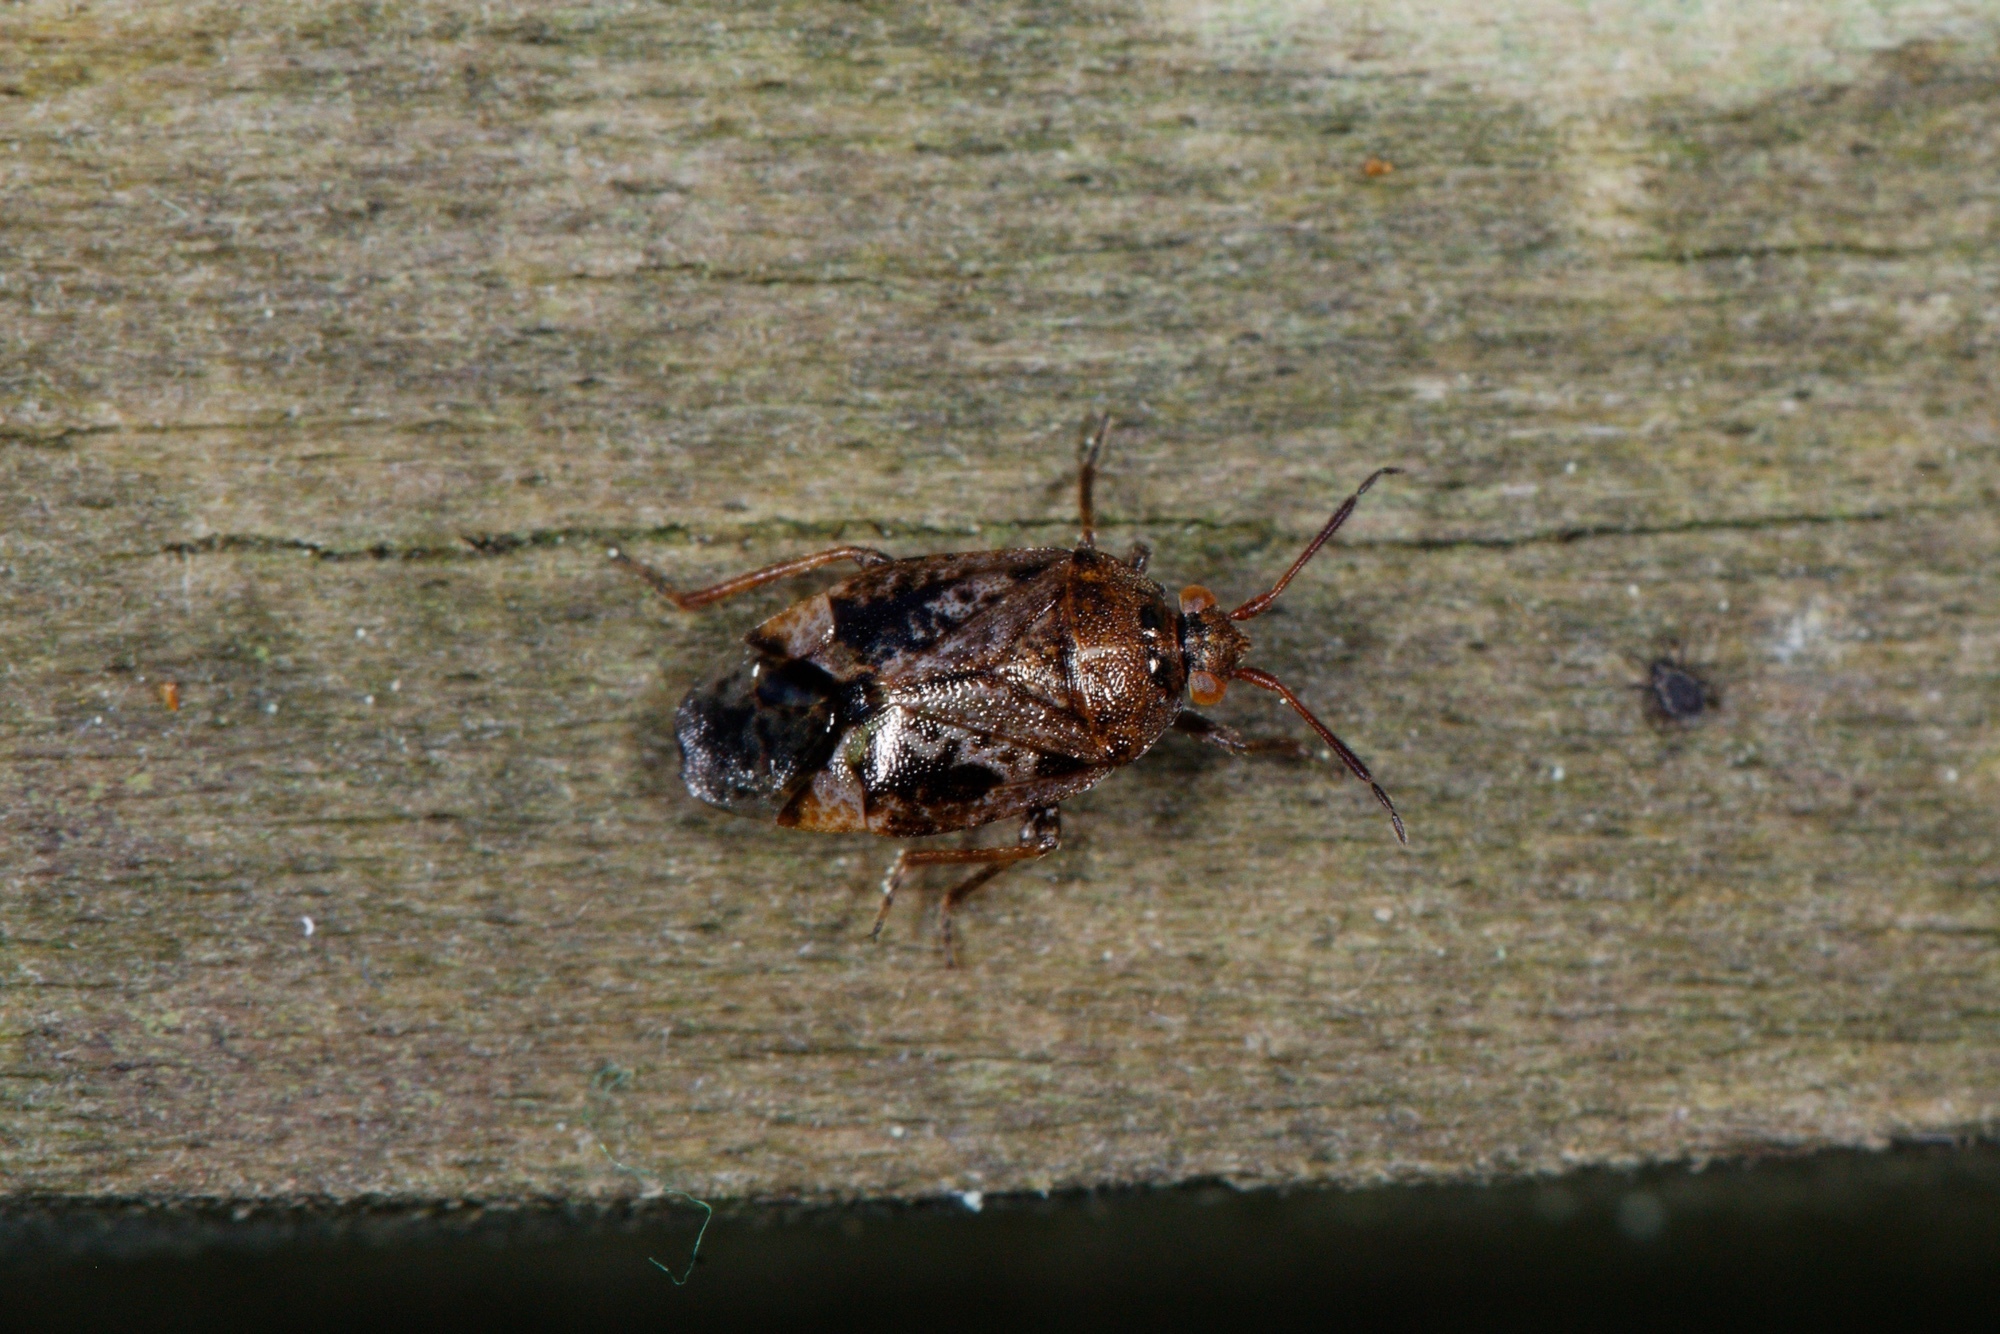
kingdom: Animalia
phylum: Arthropoda
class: Insecta
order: Hemiptera
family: Miridae
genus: Romna
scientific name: Romna scotti
